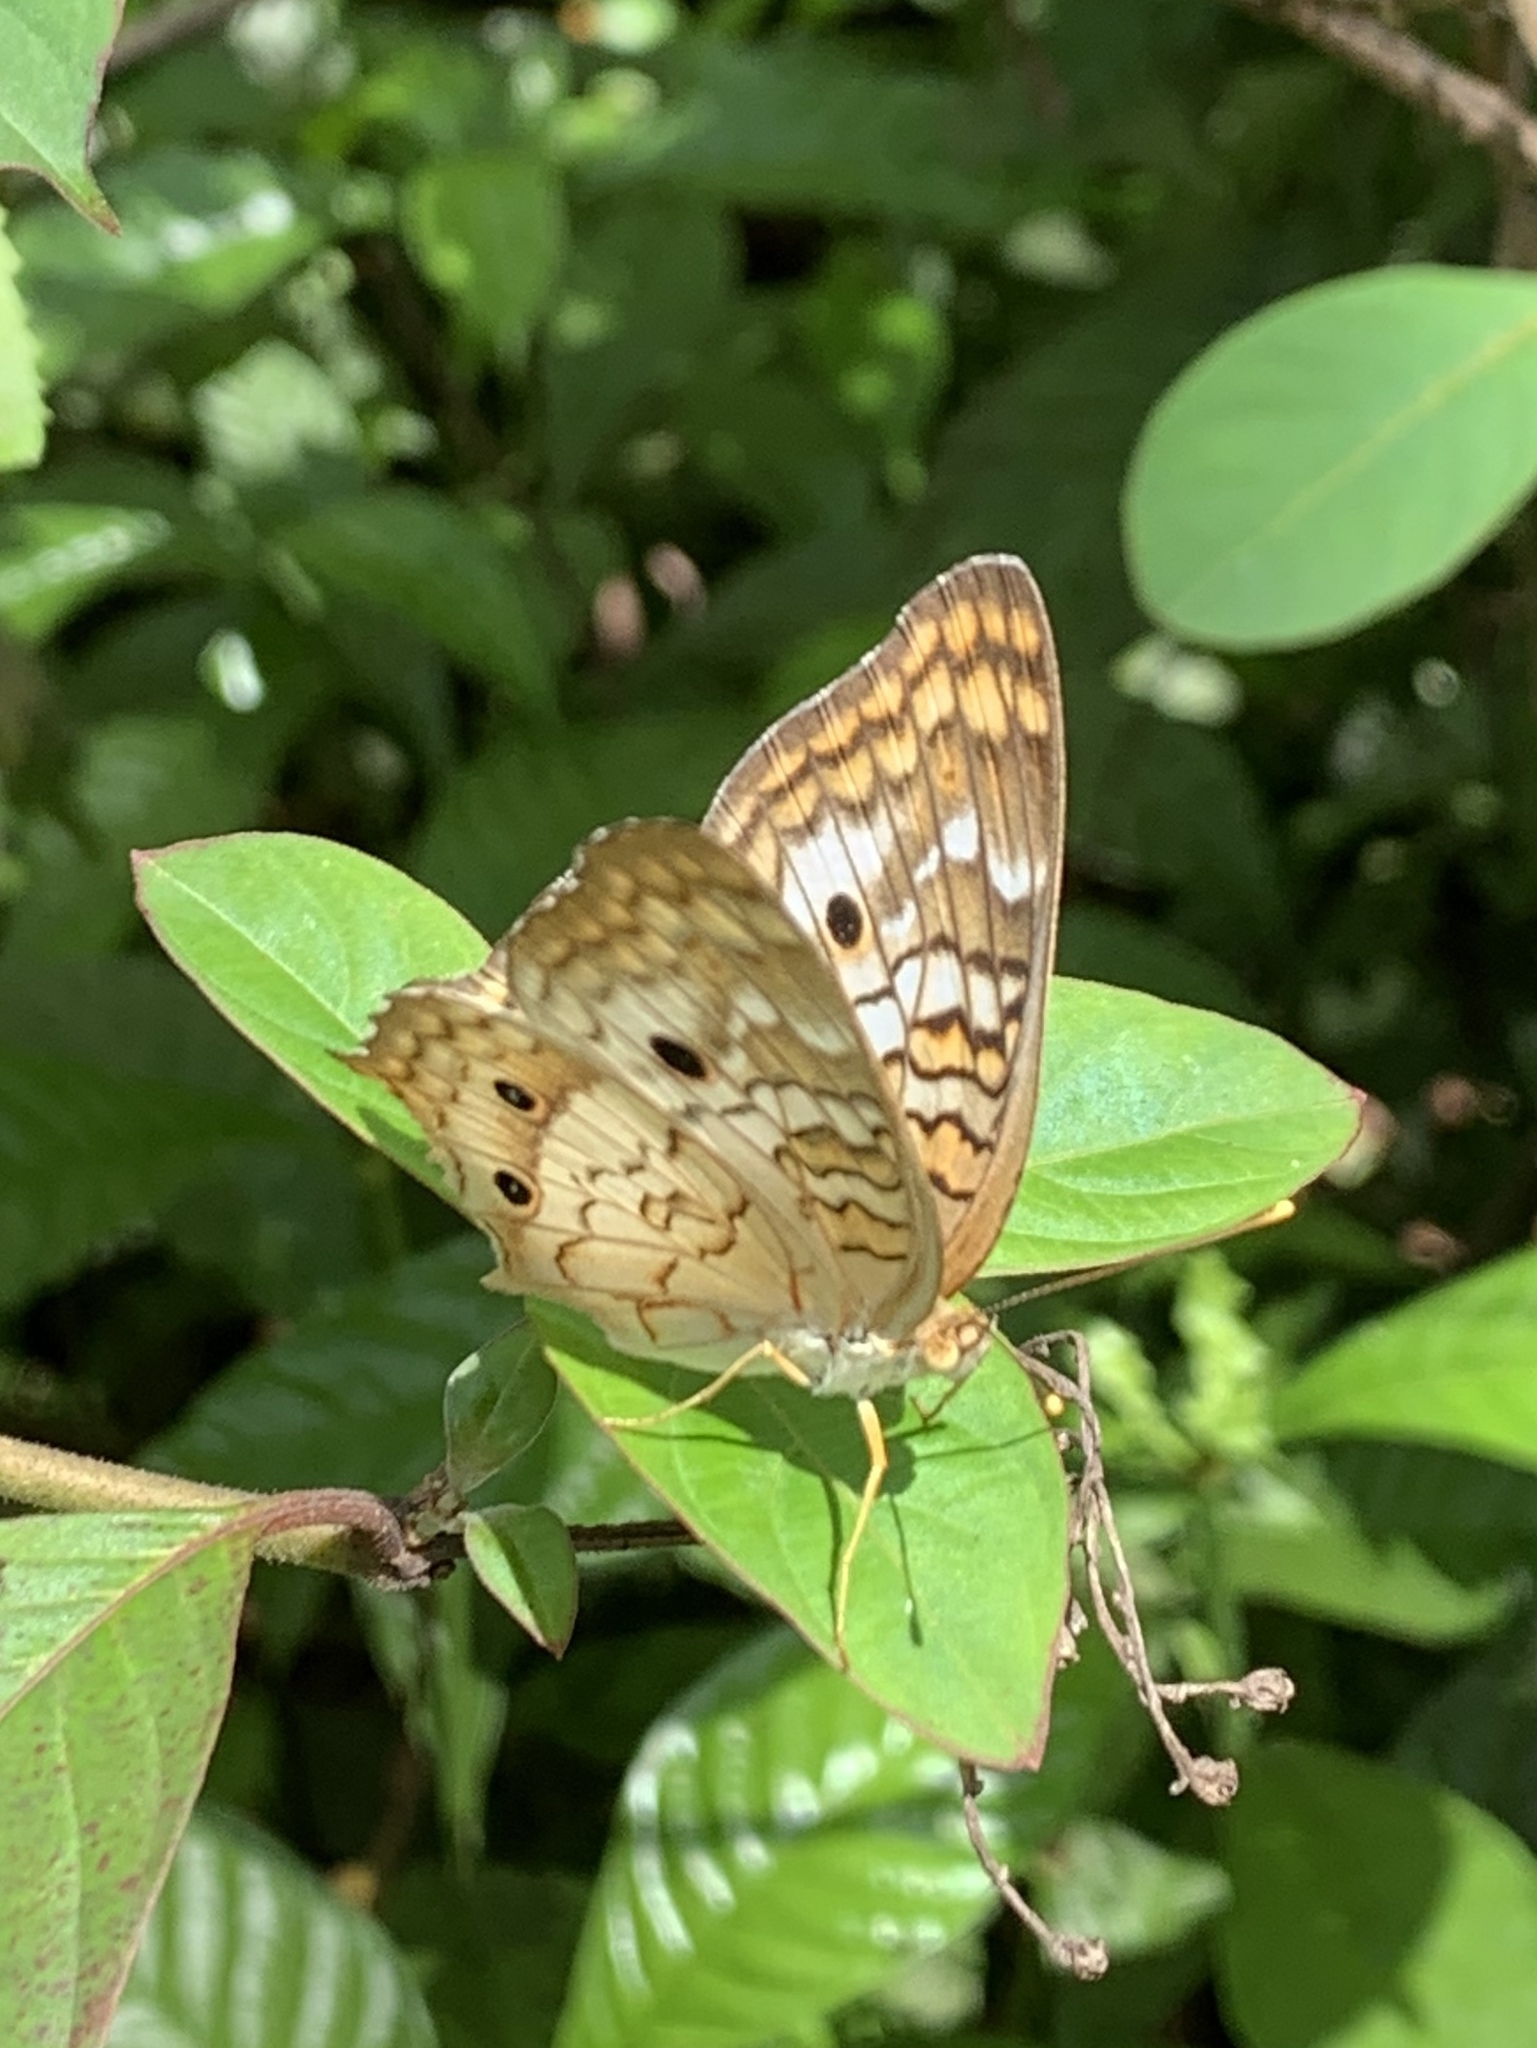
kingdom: Animalia
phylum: Arthropoda
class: Insecta
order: Lepidoptera
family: Nymphalidae
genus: Anartia
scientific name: Anartia jatrophae
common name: White peacock
